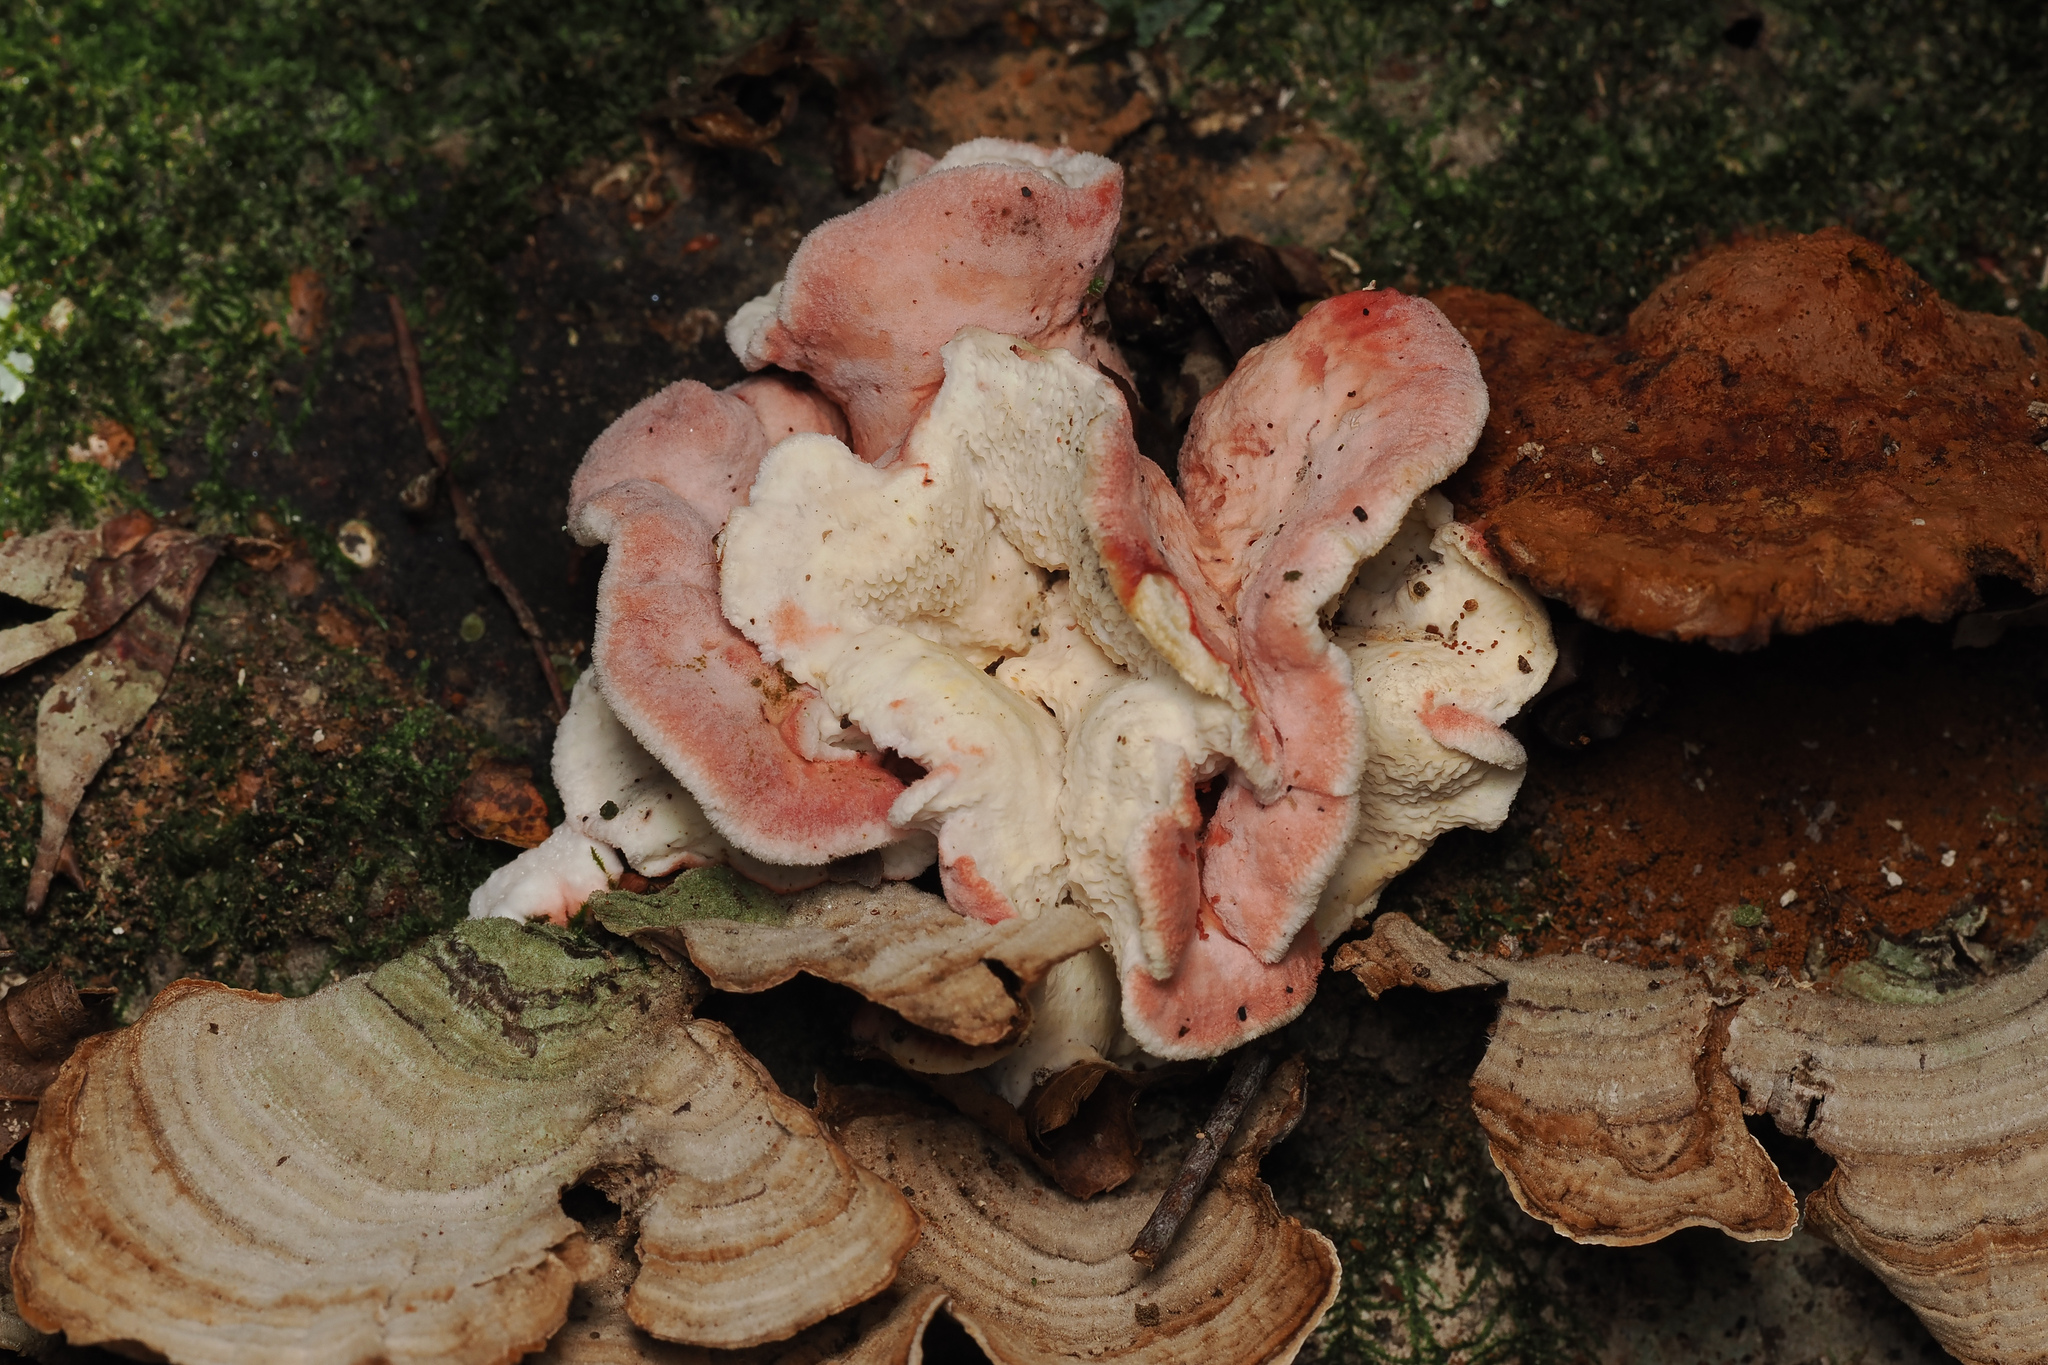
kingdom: Fungi
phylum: Basidiomycota
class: Agaricomycetes
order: Polyporales
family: Irpicaceae
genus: Byssomerulius
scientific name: Byssomerulius incarnatus
